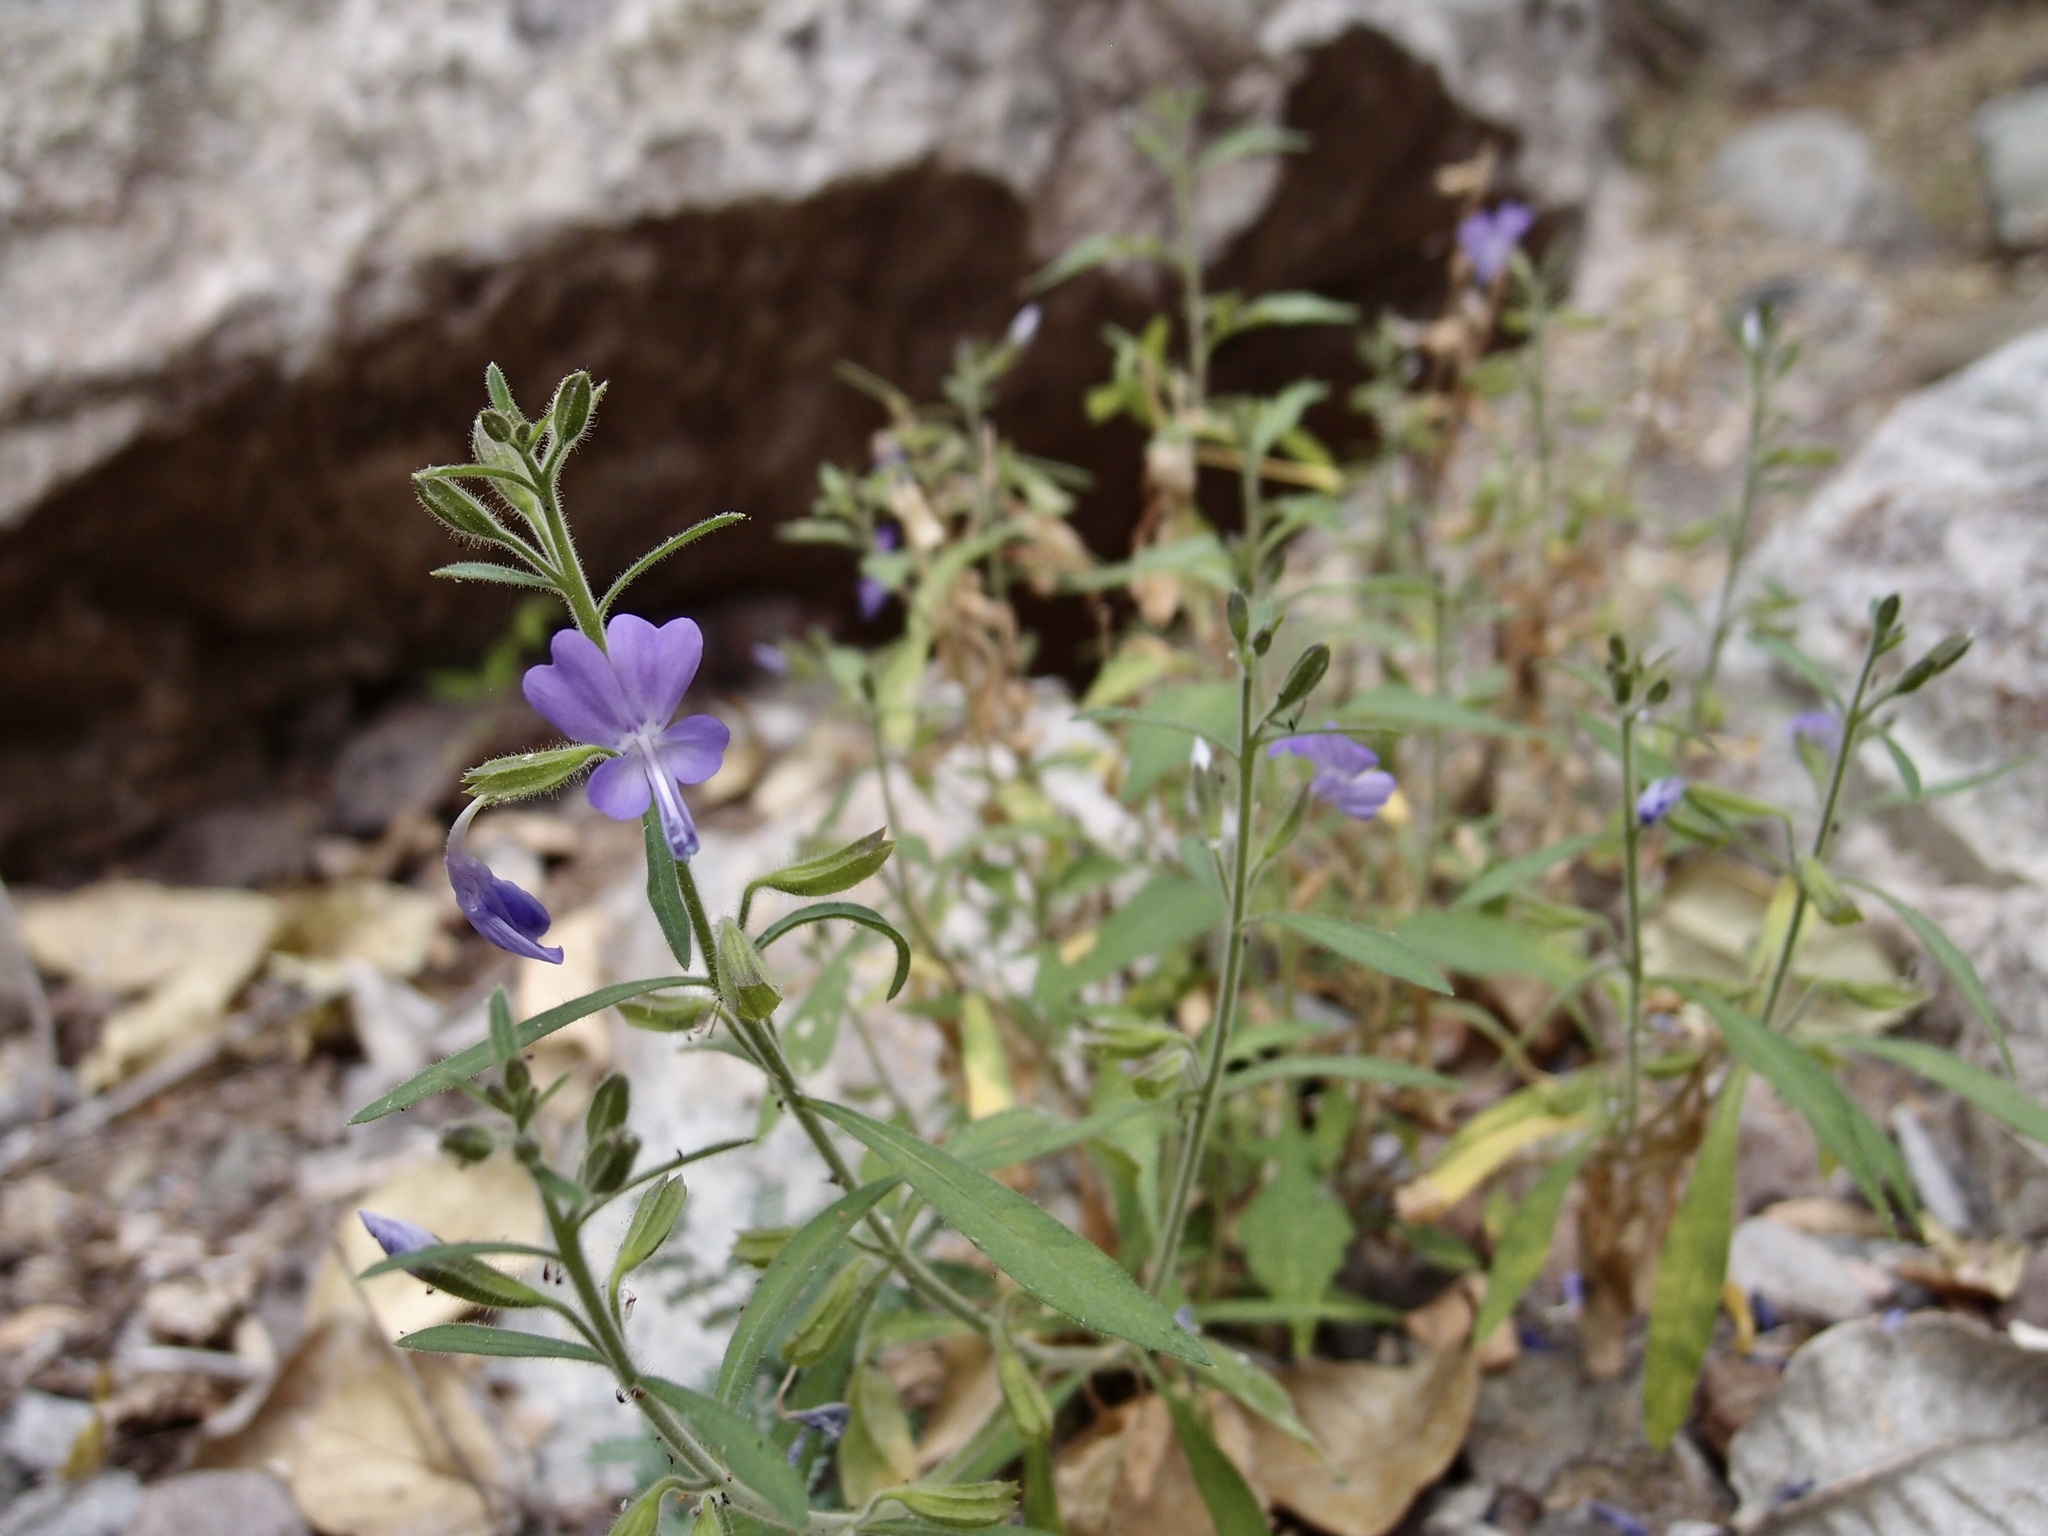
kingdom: Plantae
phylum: Tracheophyta
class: Magnoliopsida
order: Ericales
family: Polemoniaceae
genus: Bonplandia
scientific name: Bonplandia geminiflora
